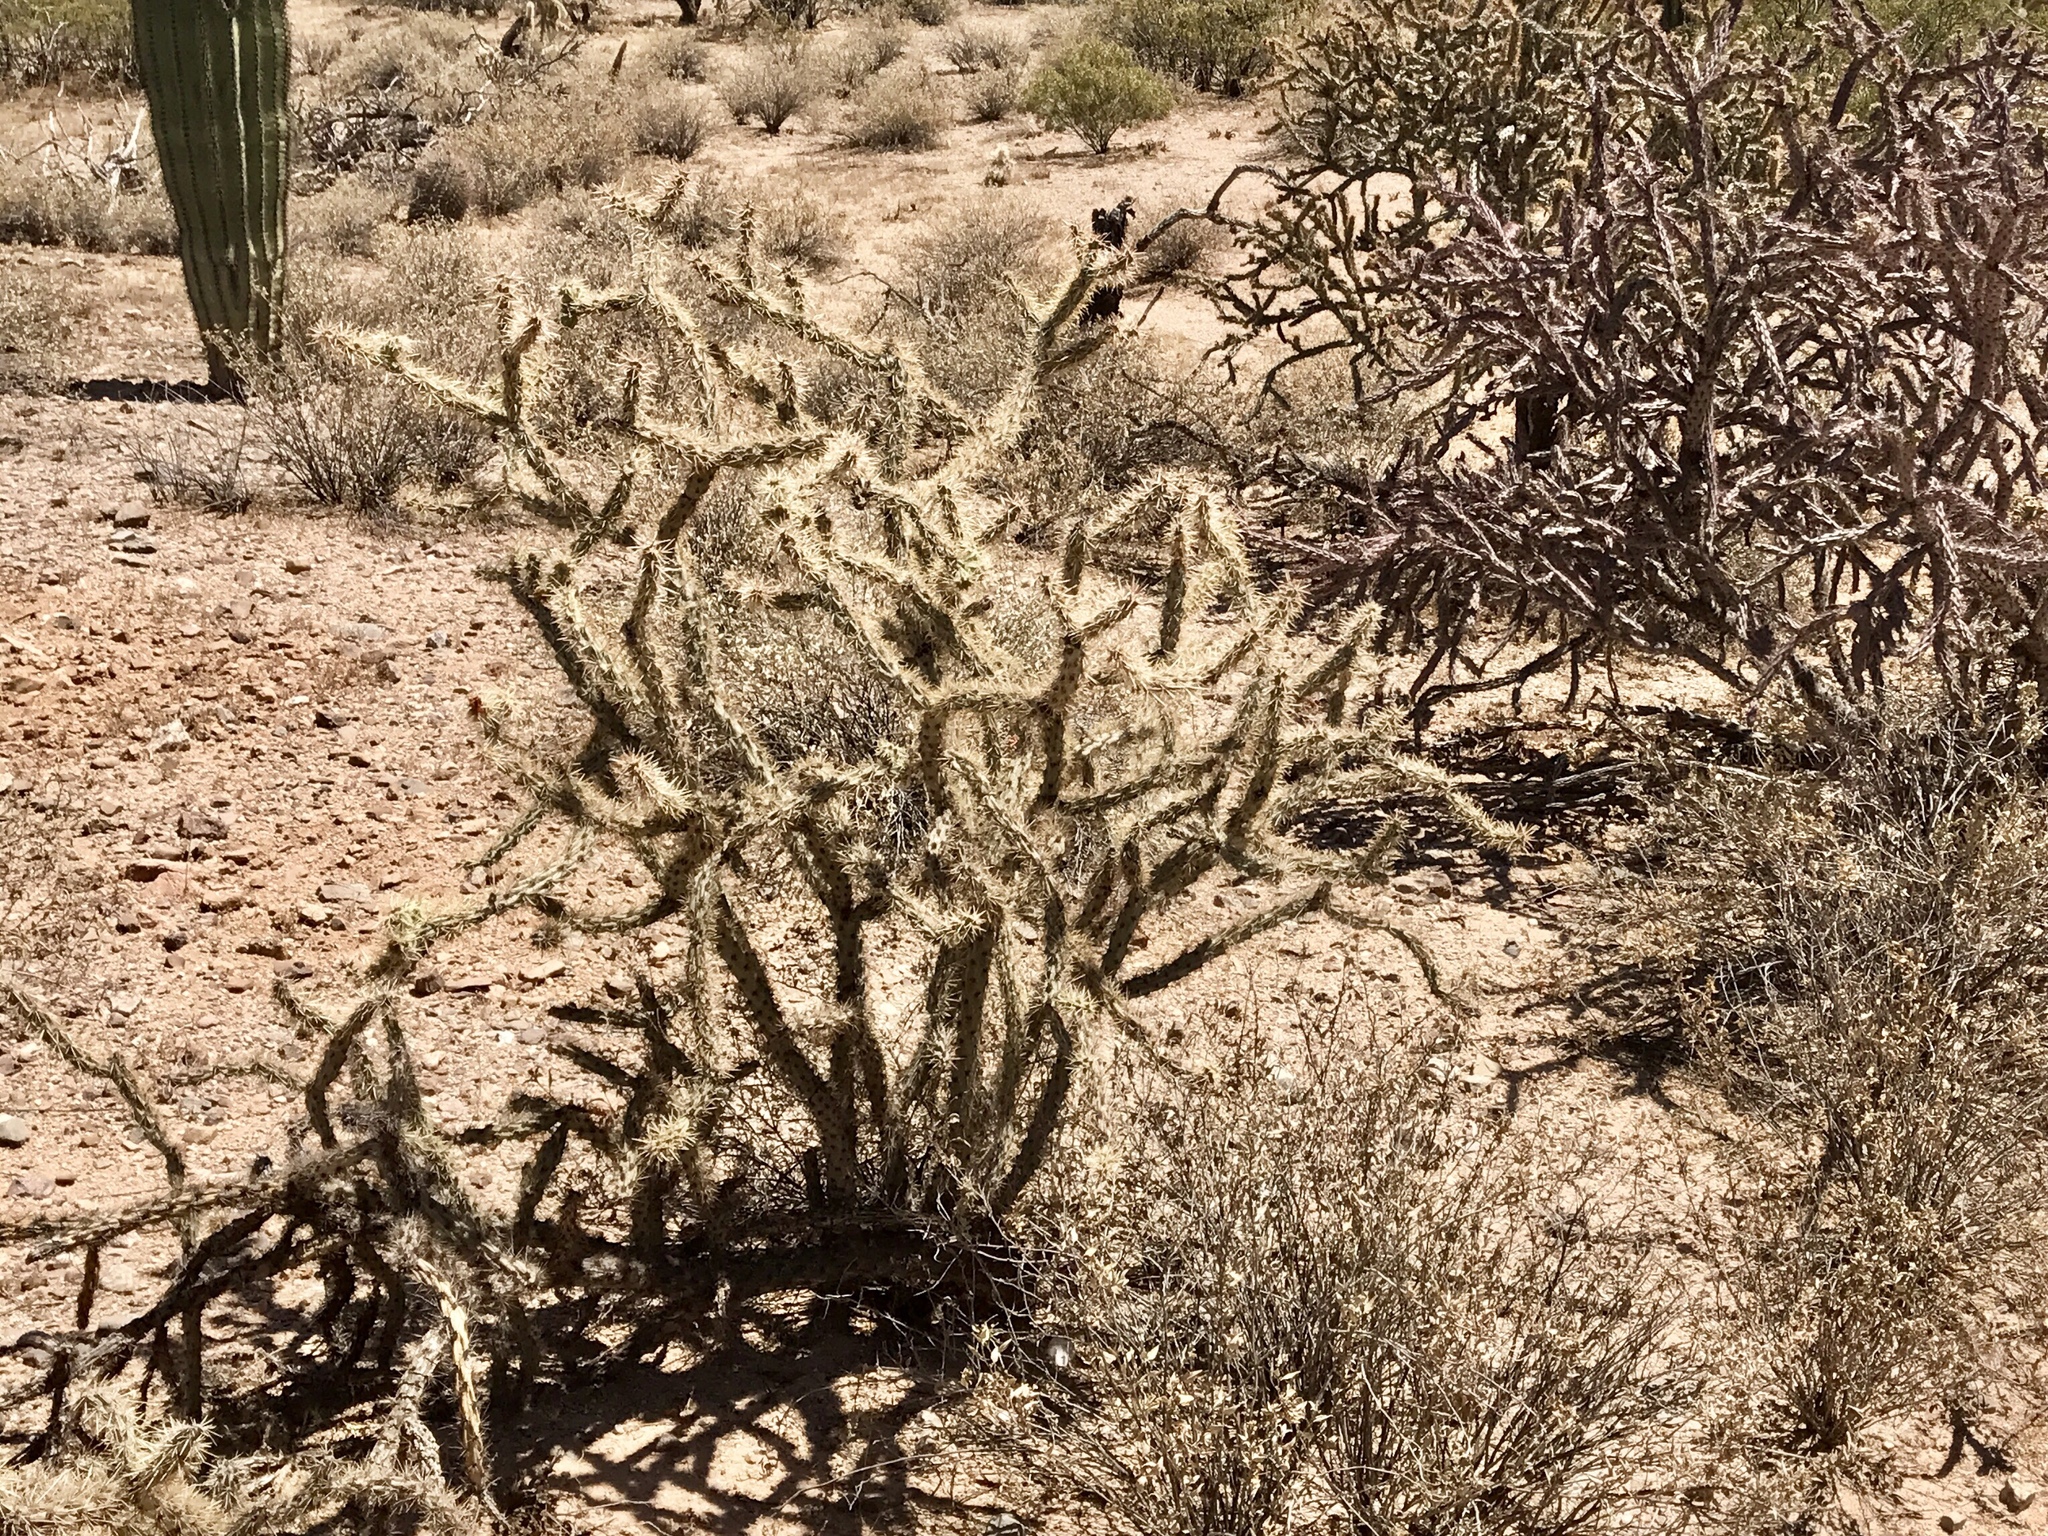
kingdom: Plantae
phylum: Tracheophyta
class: Magnoliopsida
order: Caryophyllales
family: Cactaceae
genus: Cylindropuntia
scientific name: Cylindropuntia acanthocarpa
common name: Buckhorn cholla
